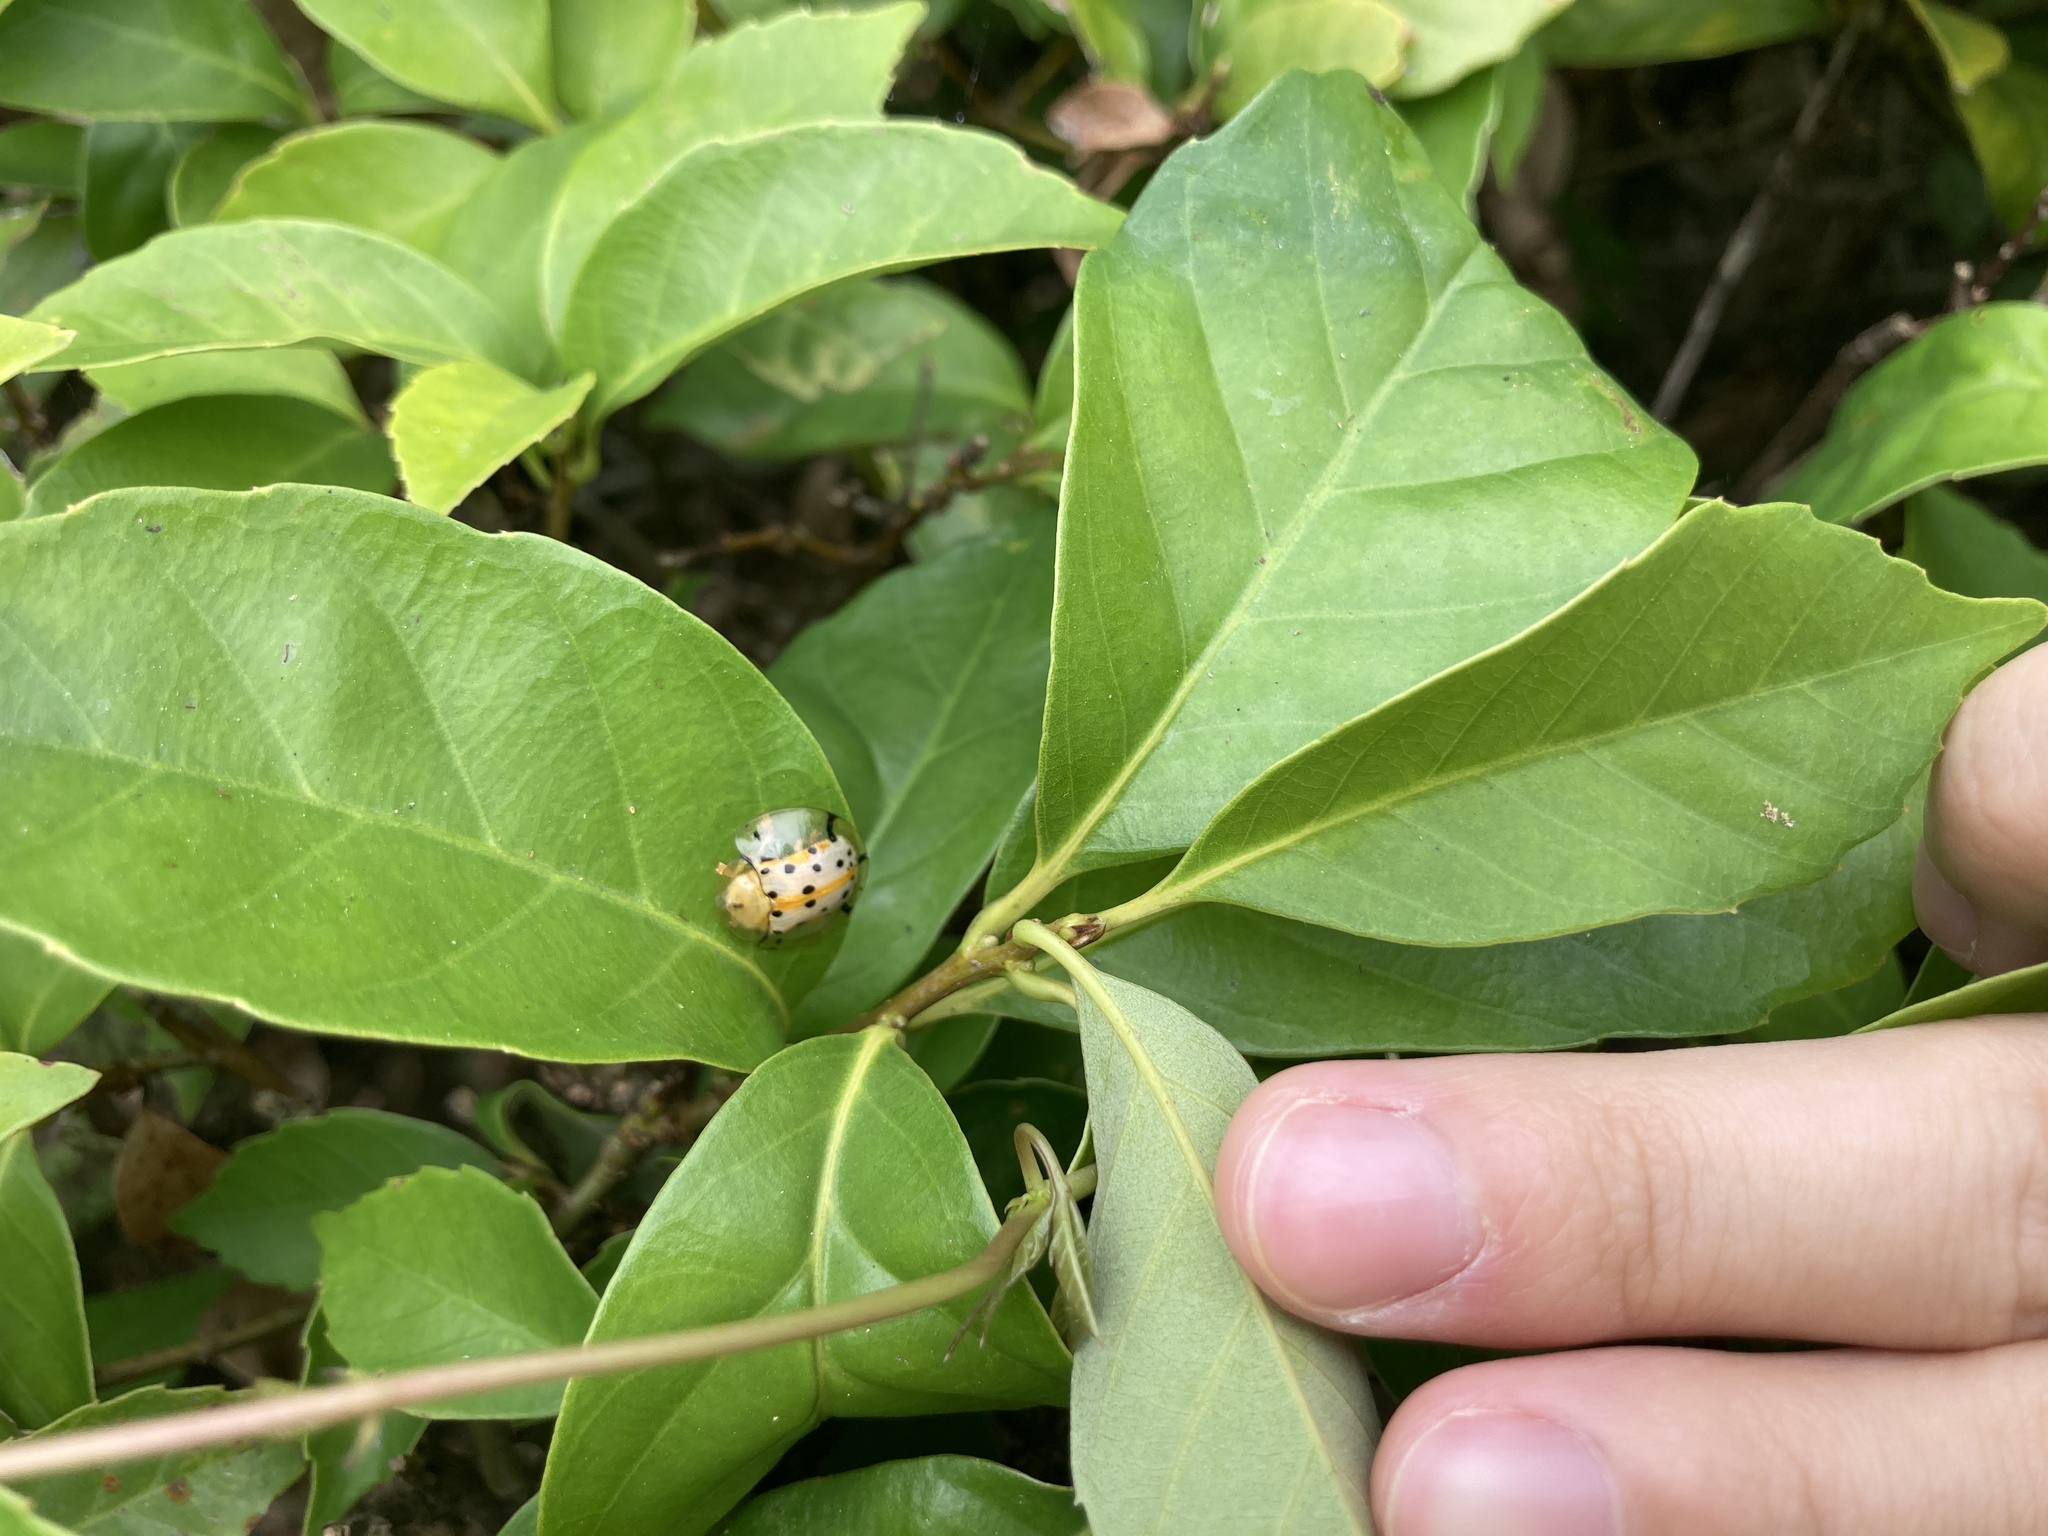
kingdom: Animalia
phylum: Arthropoda
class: Insecta
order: Coleoptera
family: Chrysomelidae
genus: Aspidimorpha
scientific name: Aspidimorpha miliaris
